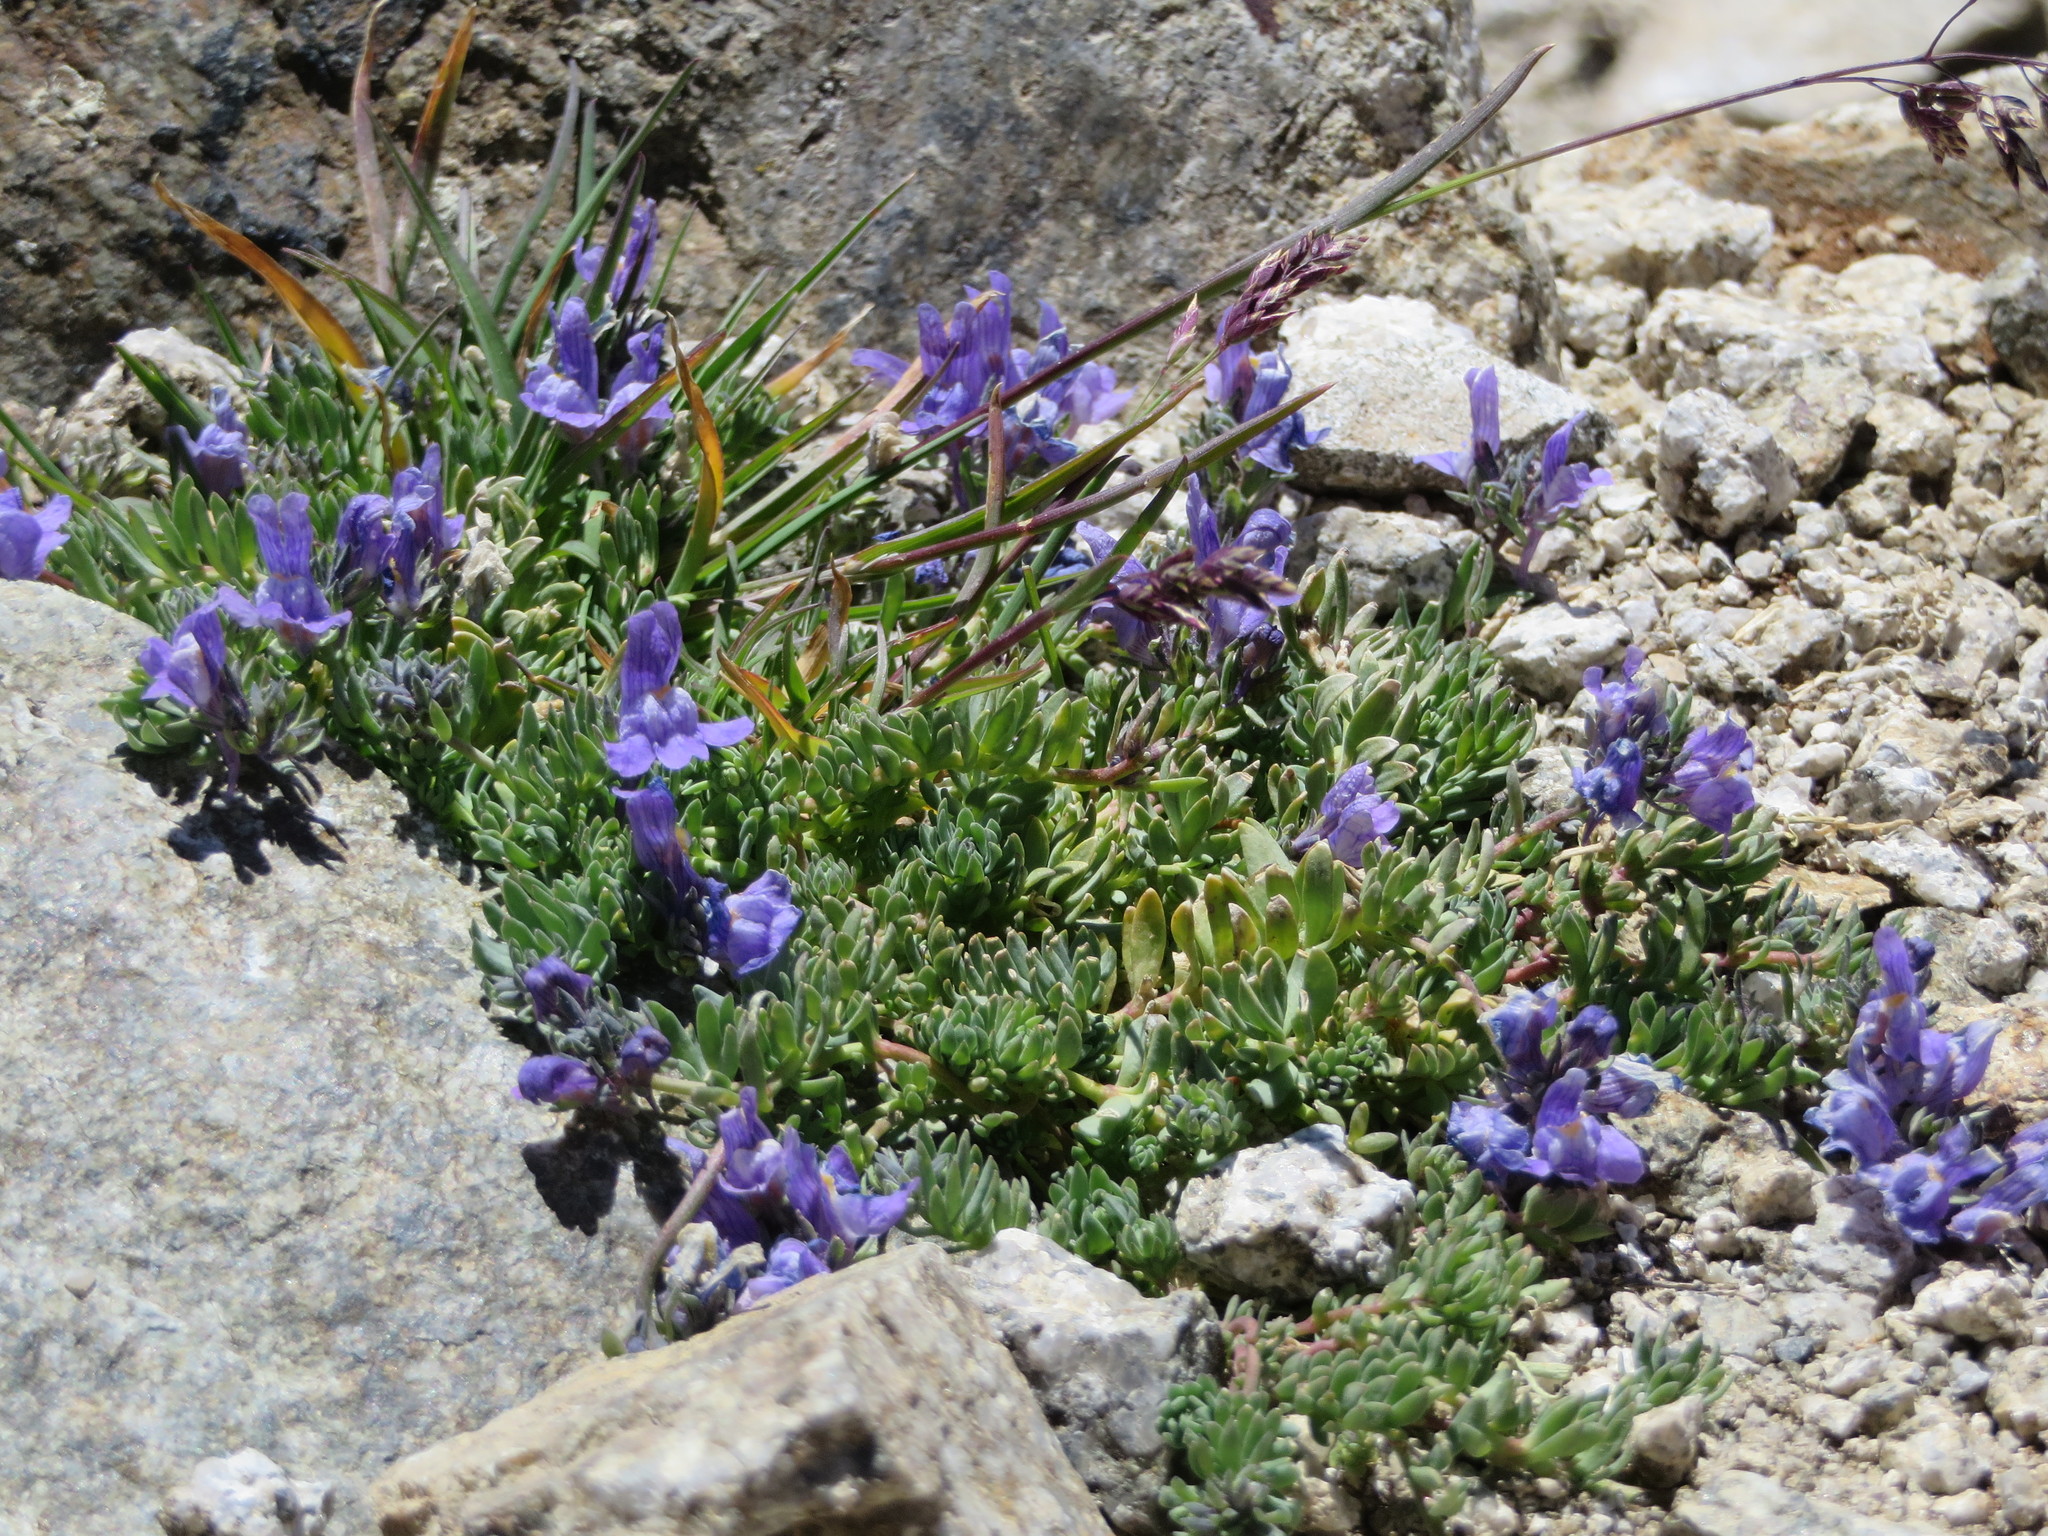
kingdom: Plantae
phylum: Tracheophyta
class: Magnoliopsida
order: Lamiales
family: Plantaginaceae
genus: Linaria
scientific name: Linaria alpina
